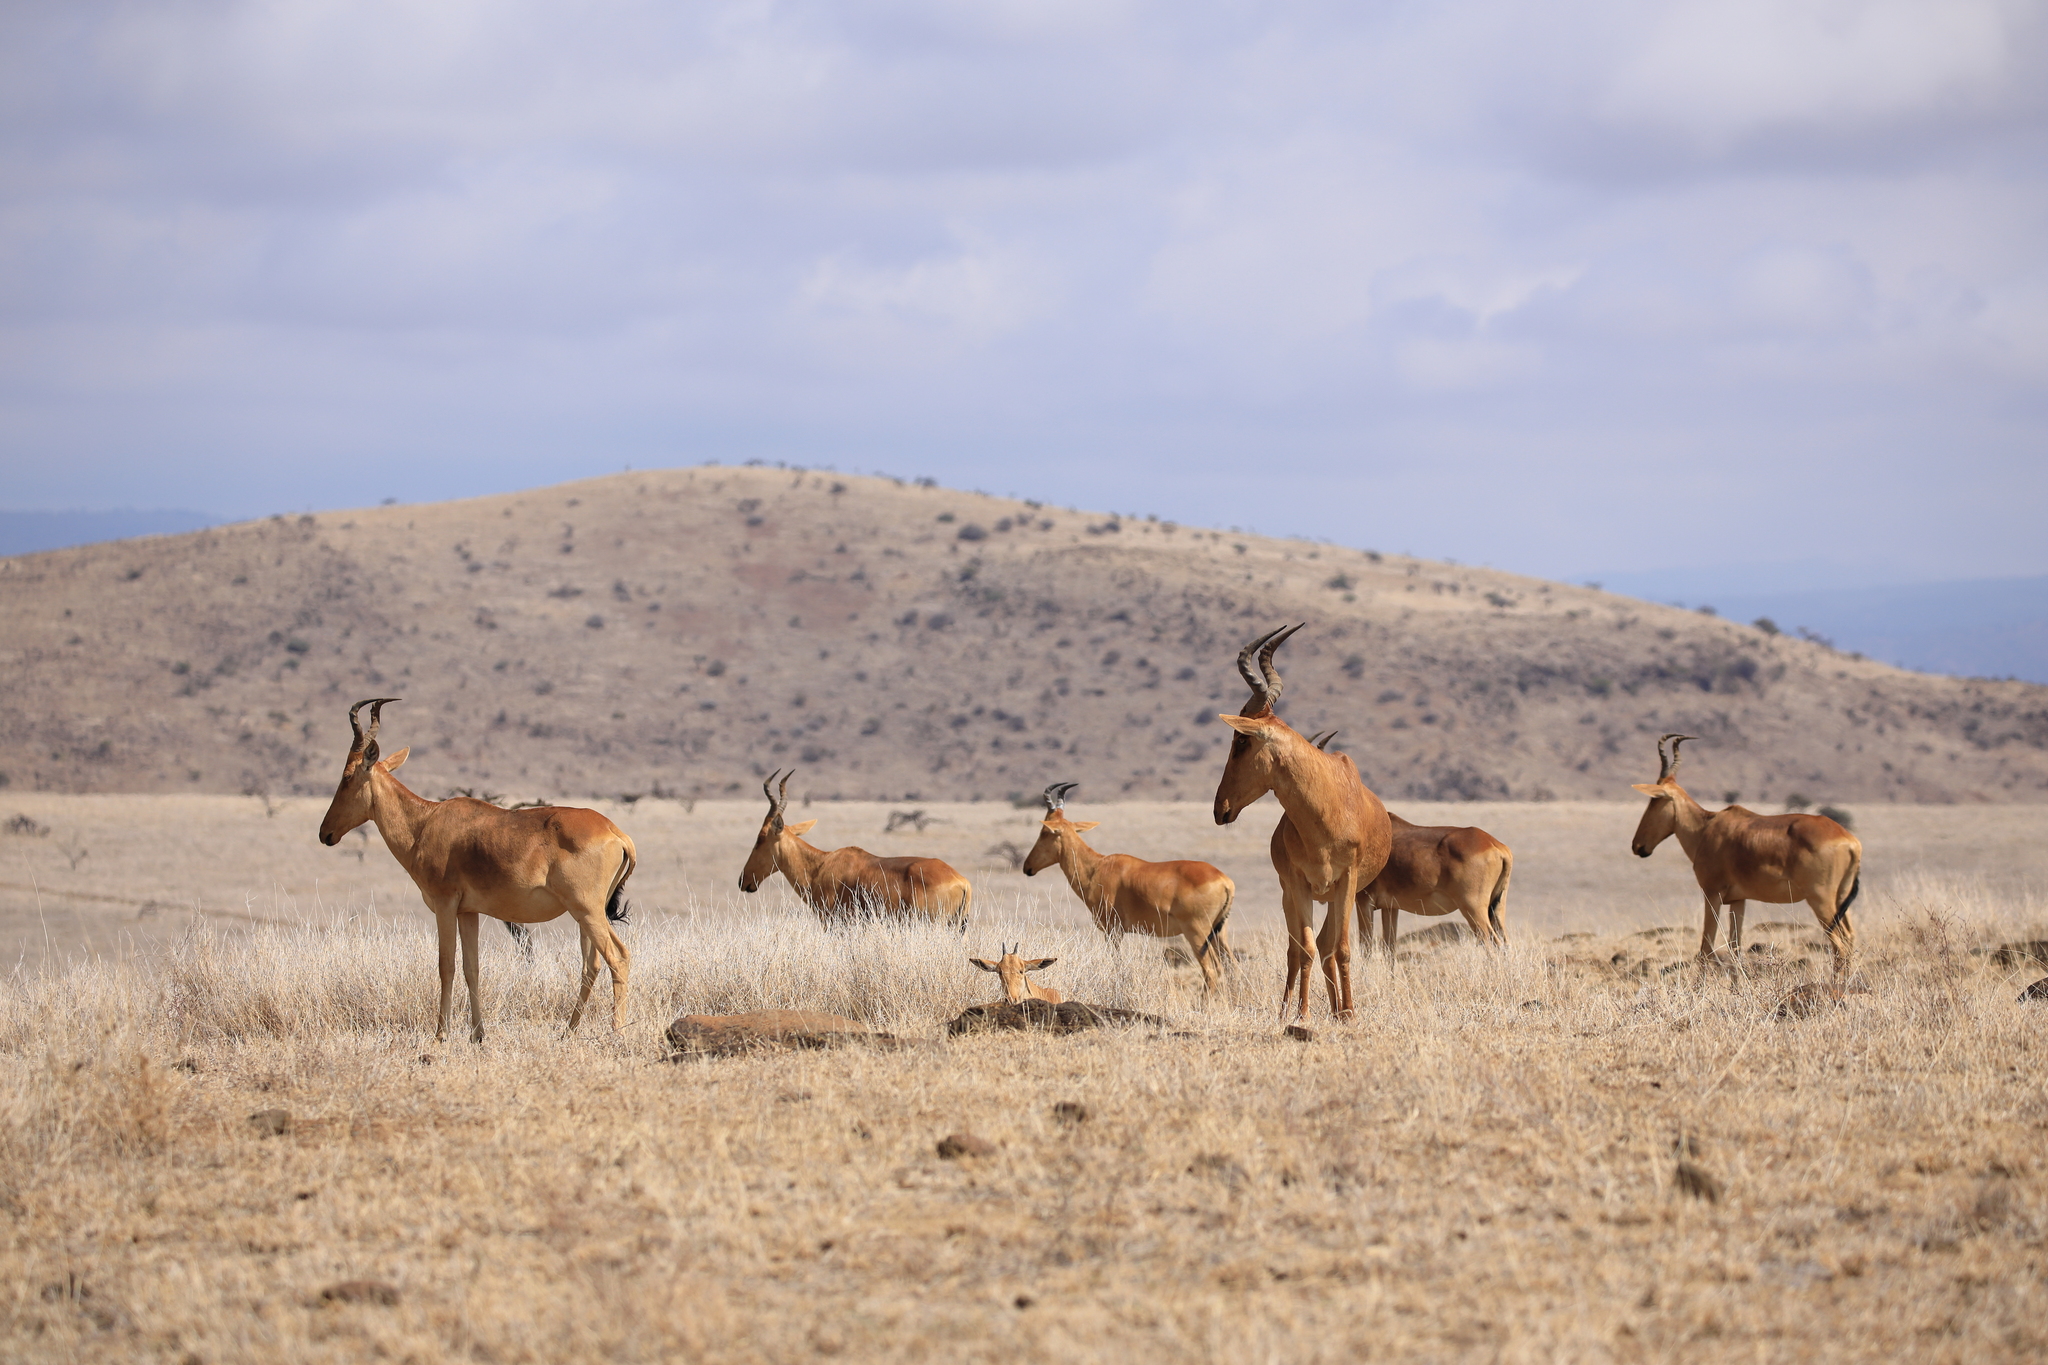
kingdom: Animalia
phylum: Chordata
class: Mammalia
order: Artiodactyla
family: Bovidae
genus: Alcelaphus
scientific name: Alcelaphus buselaphus
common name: Hartebeest
